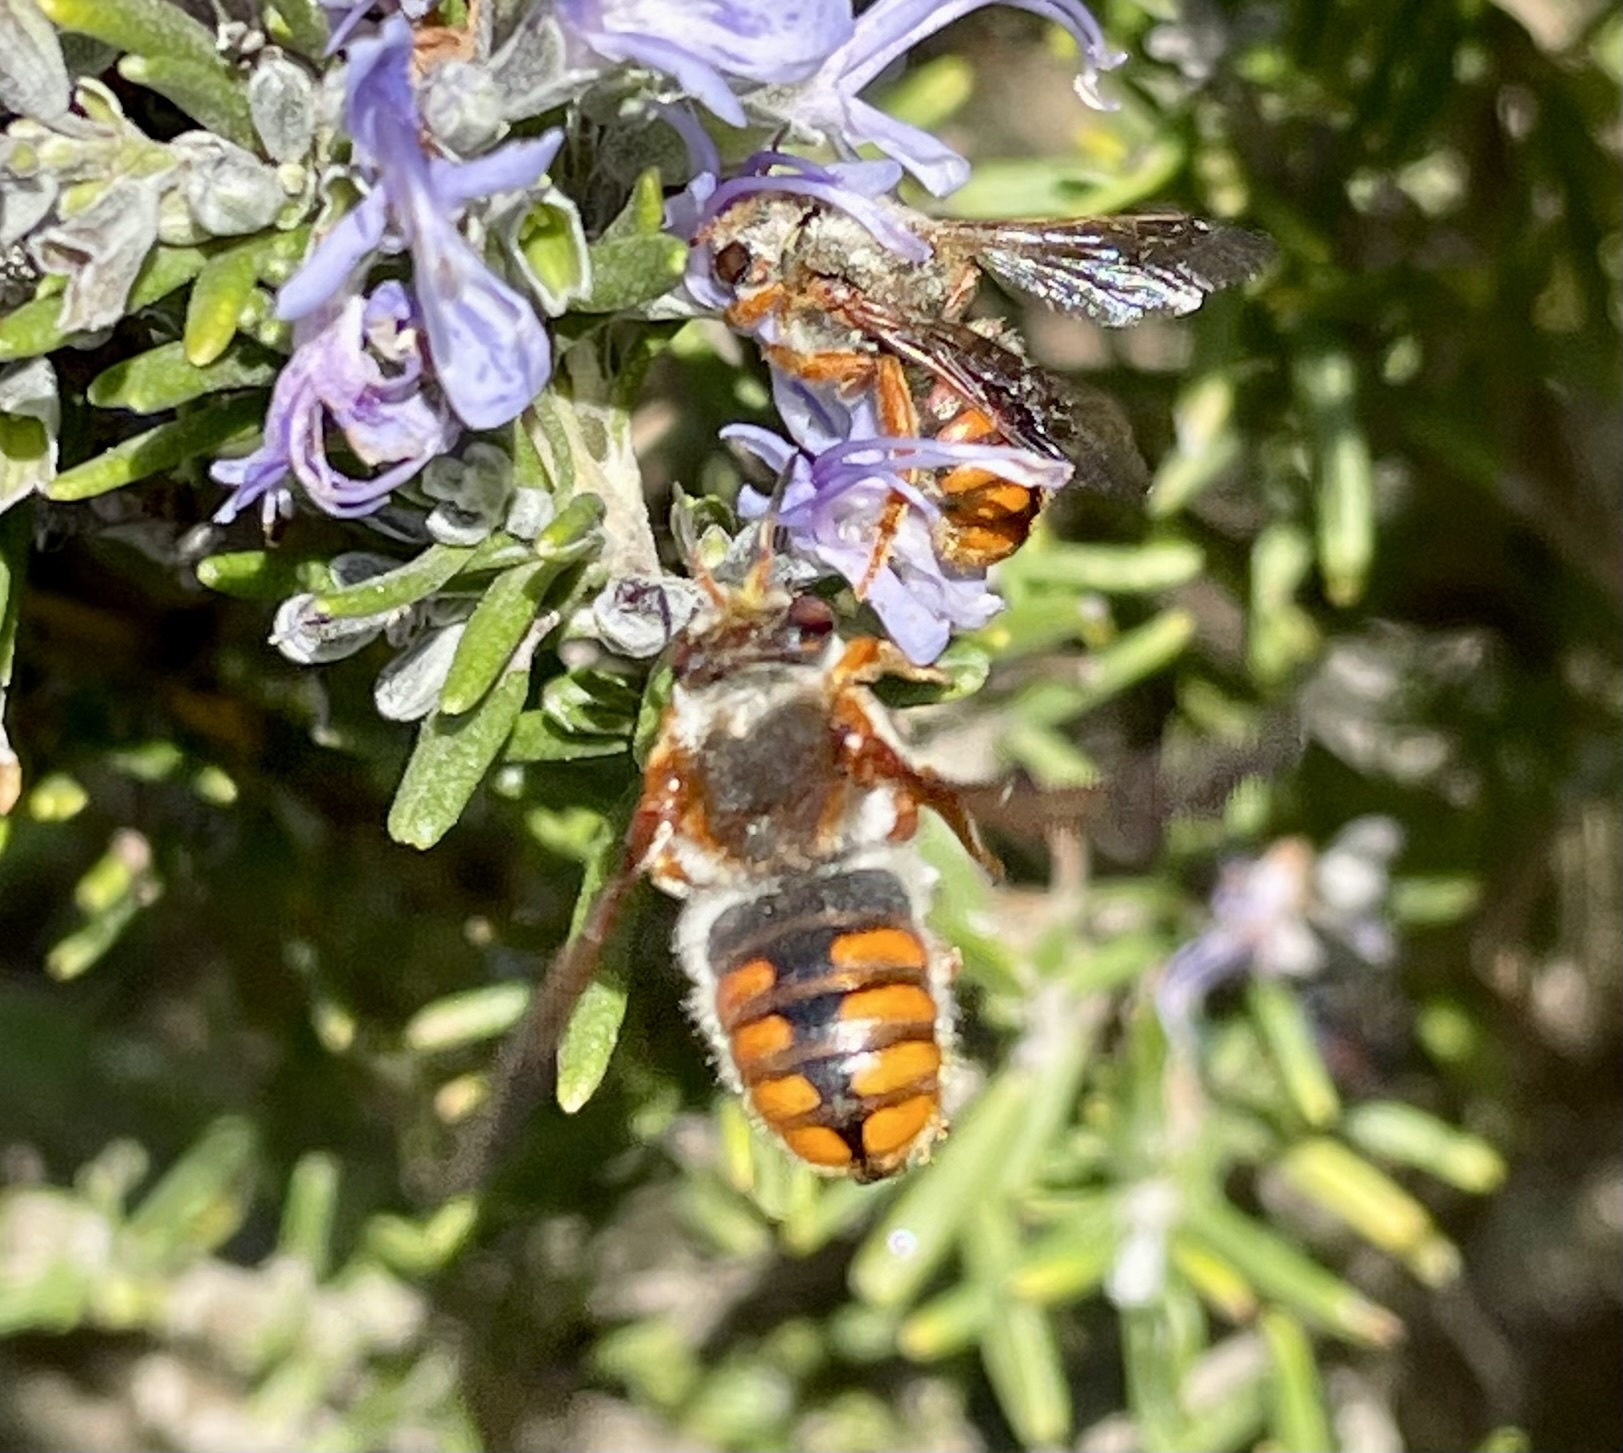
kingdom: Animalia
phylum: Arthropoda
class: Insecta
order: Hymenoptera
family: Megachilidae
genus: Rhodanthidium
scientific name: Rhodanthidium sticticum
